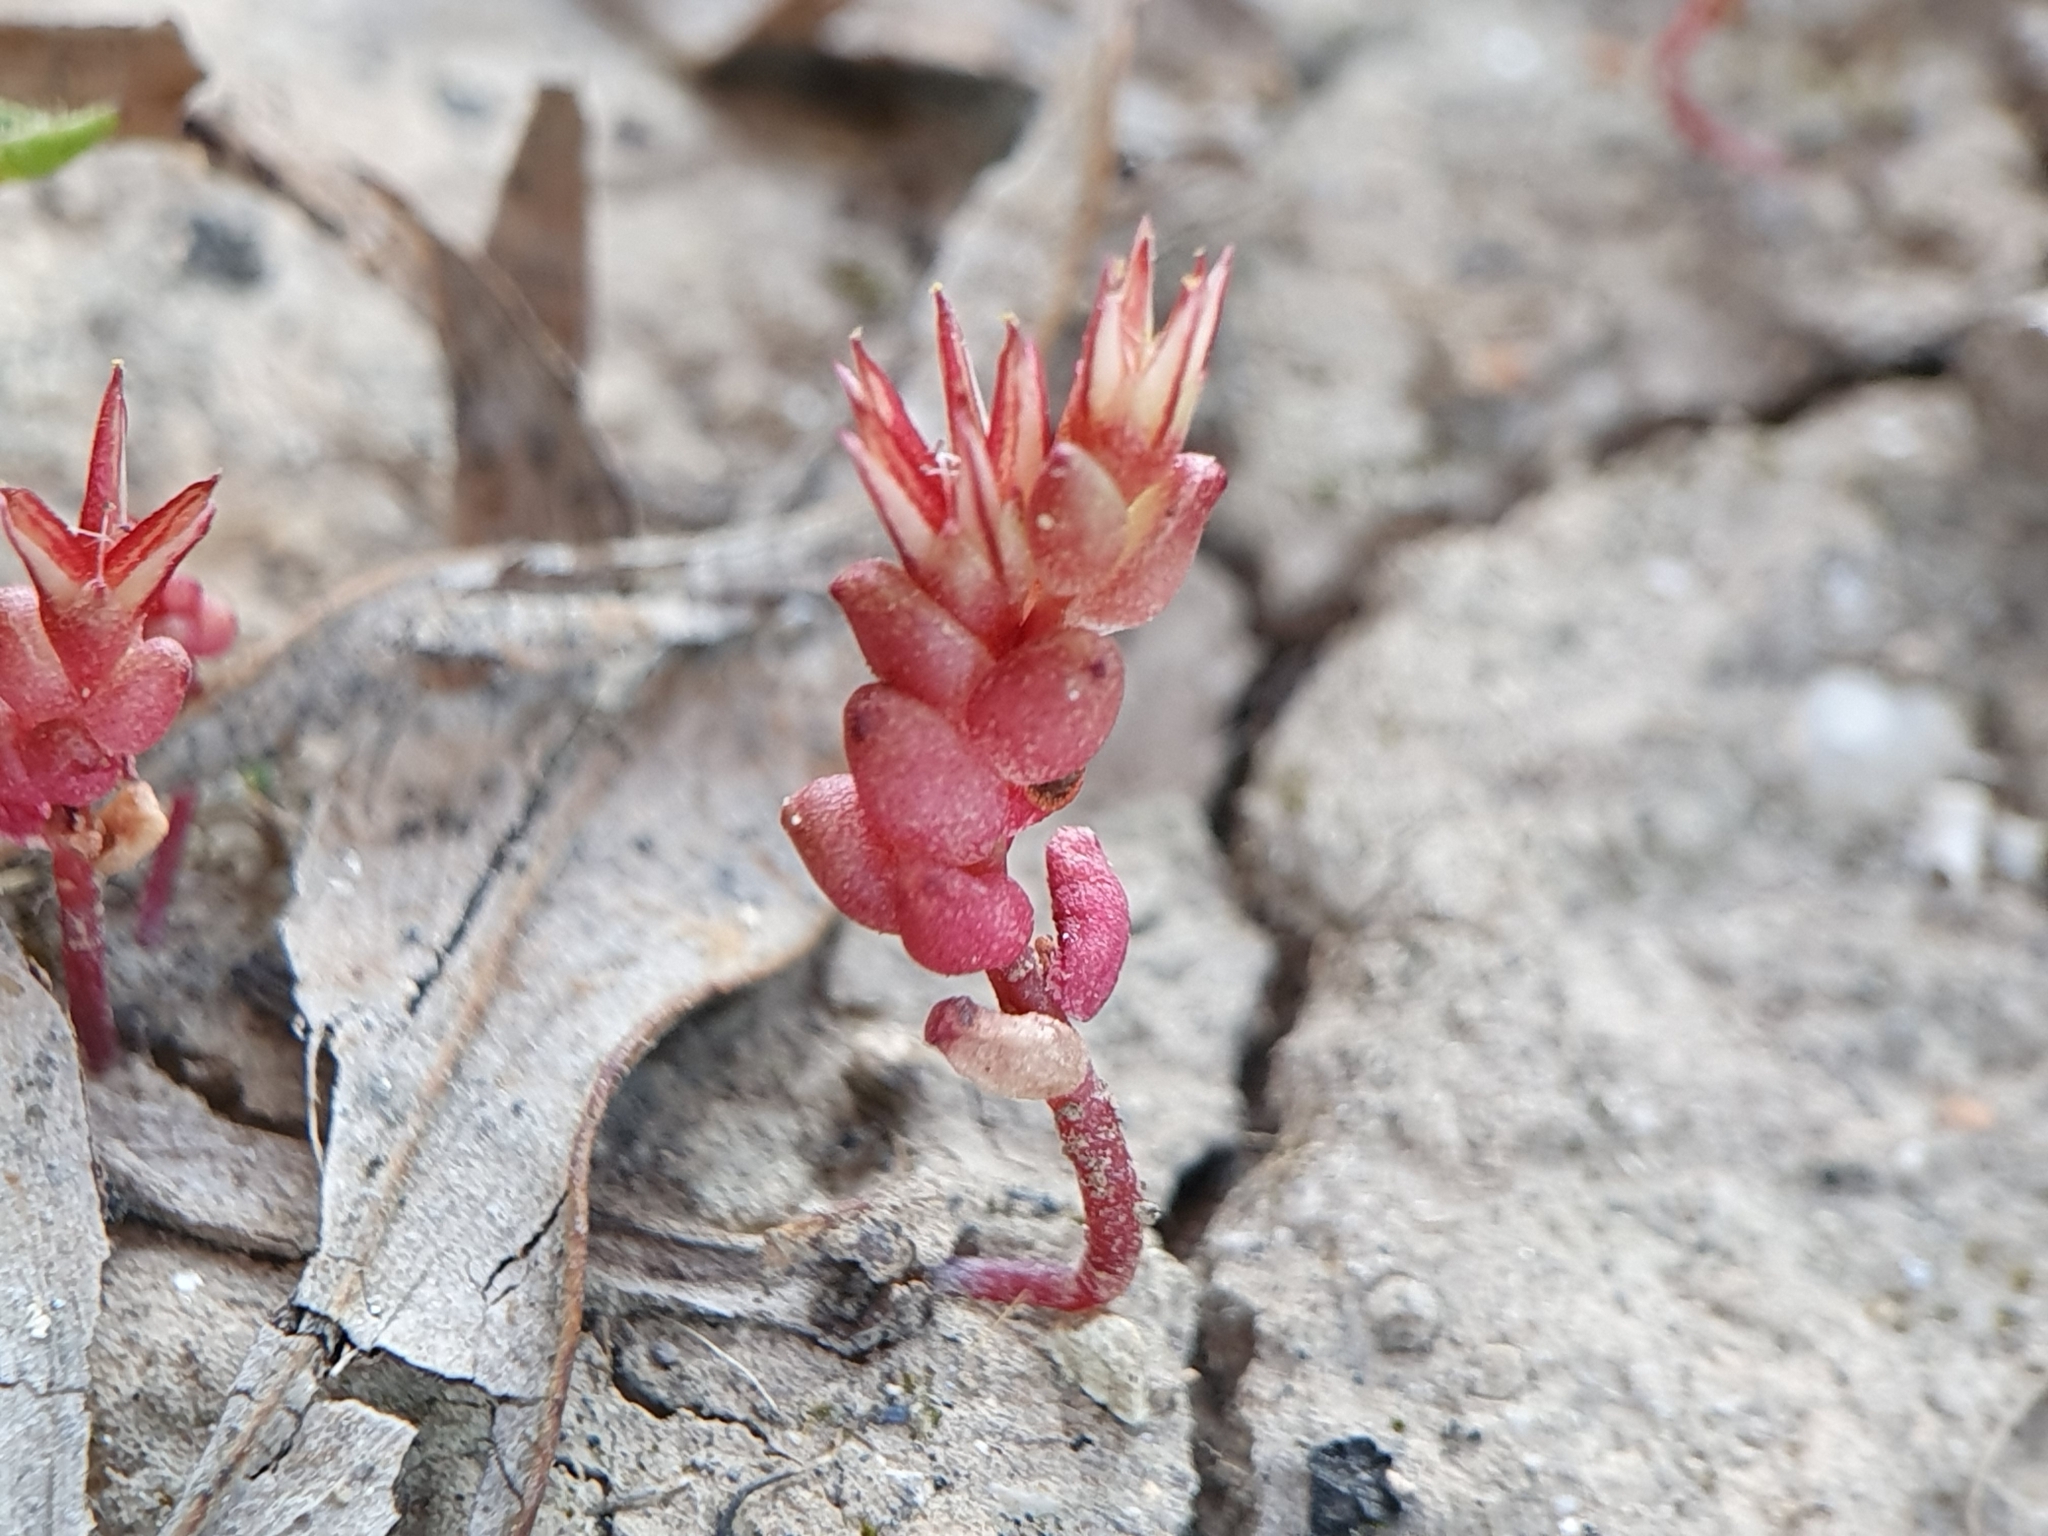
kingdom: Plantae
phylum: Tracheophyta
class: Magnoliopsida
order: Saxifragales
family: Crassulaceae
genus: Sedum
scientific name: Sedum cespitosum
